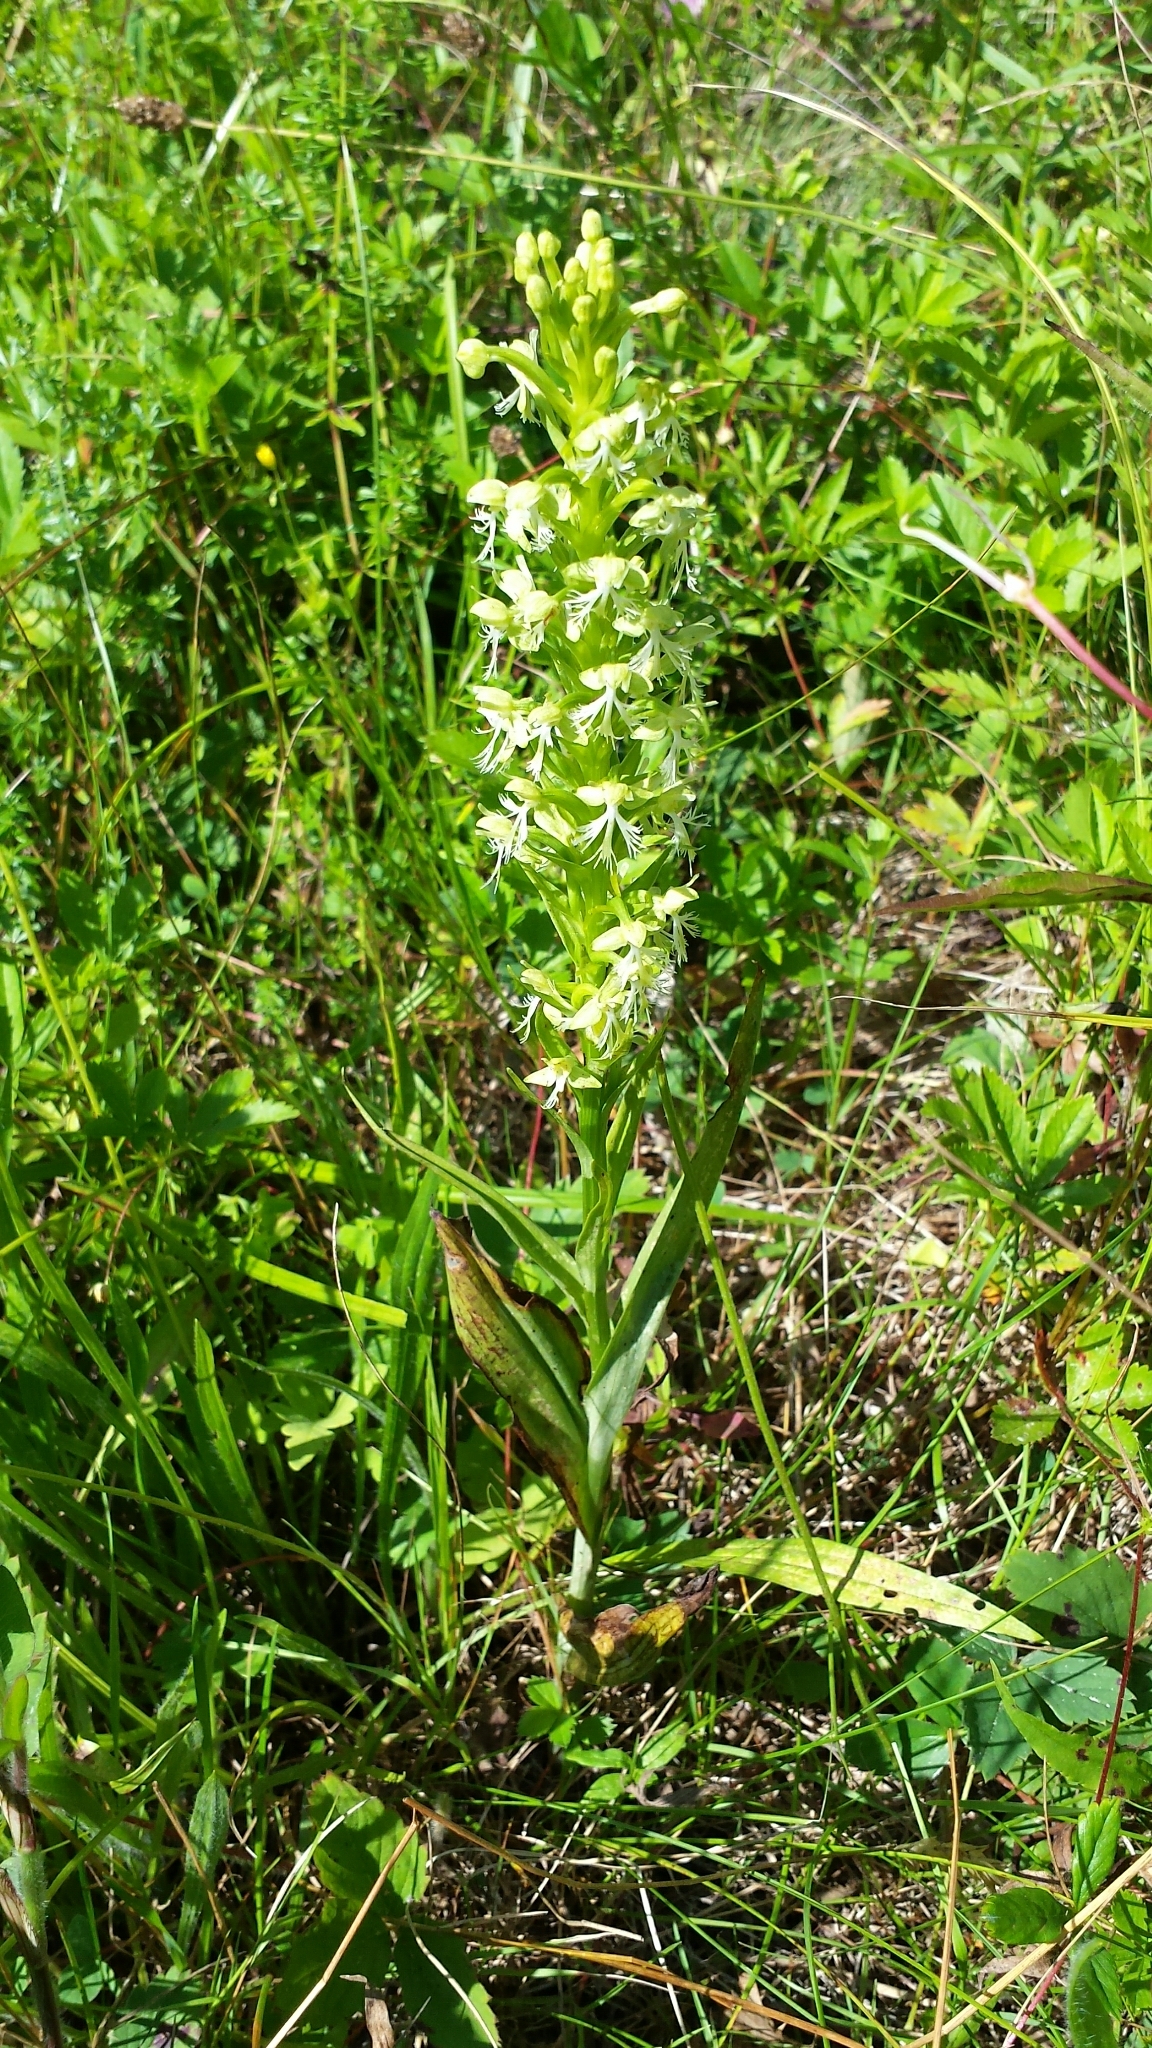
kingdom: Plantae
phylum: Tracheophyta
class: Liliopsida
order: Asparagales
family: Orchidaceae
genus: Platanthera
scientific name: Platanthera lacera
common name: Green fringed orchid
